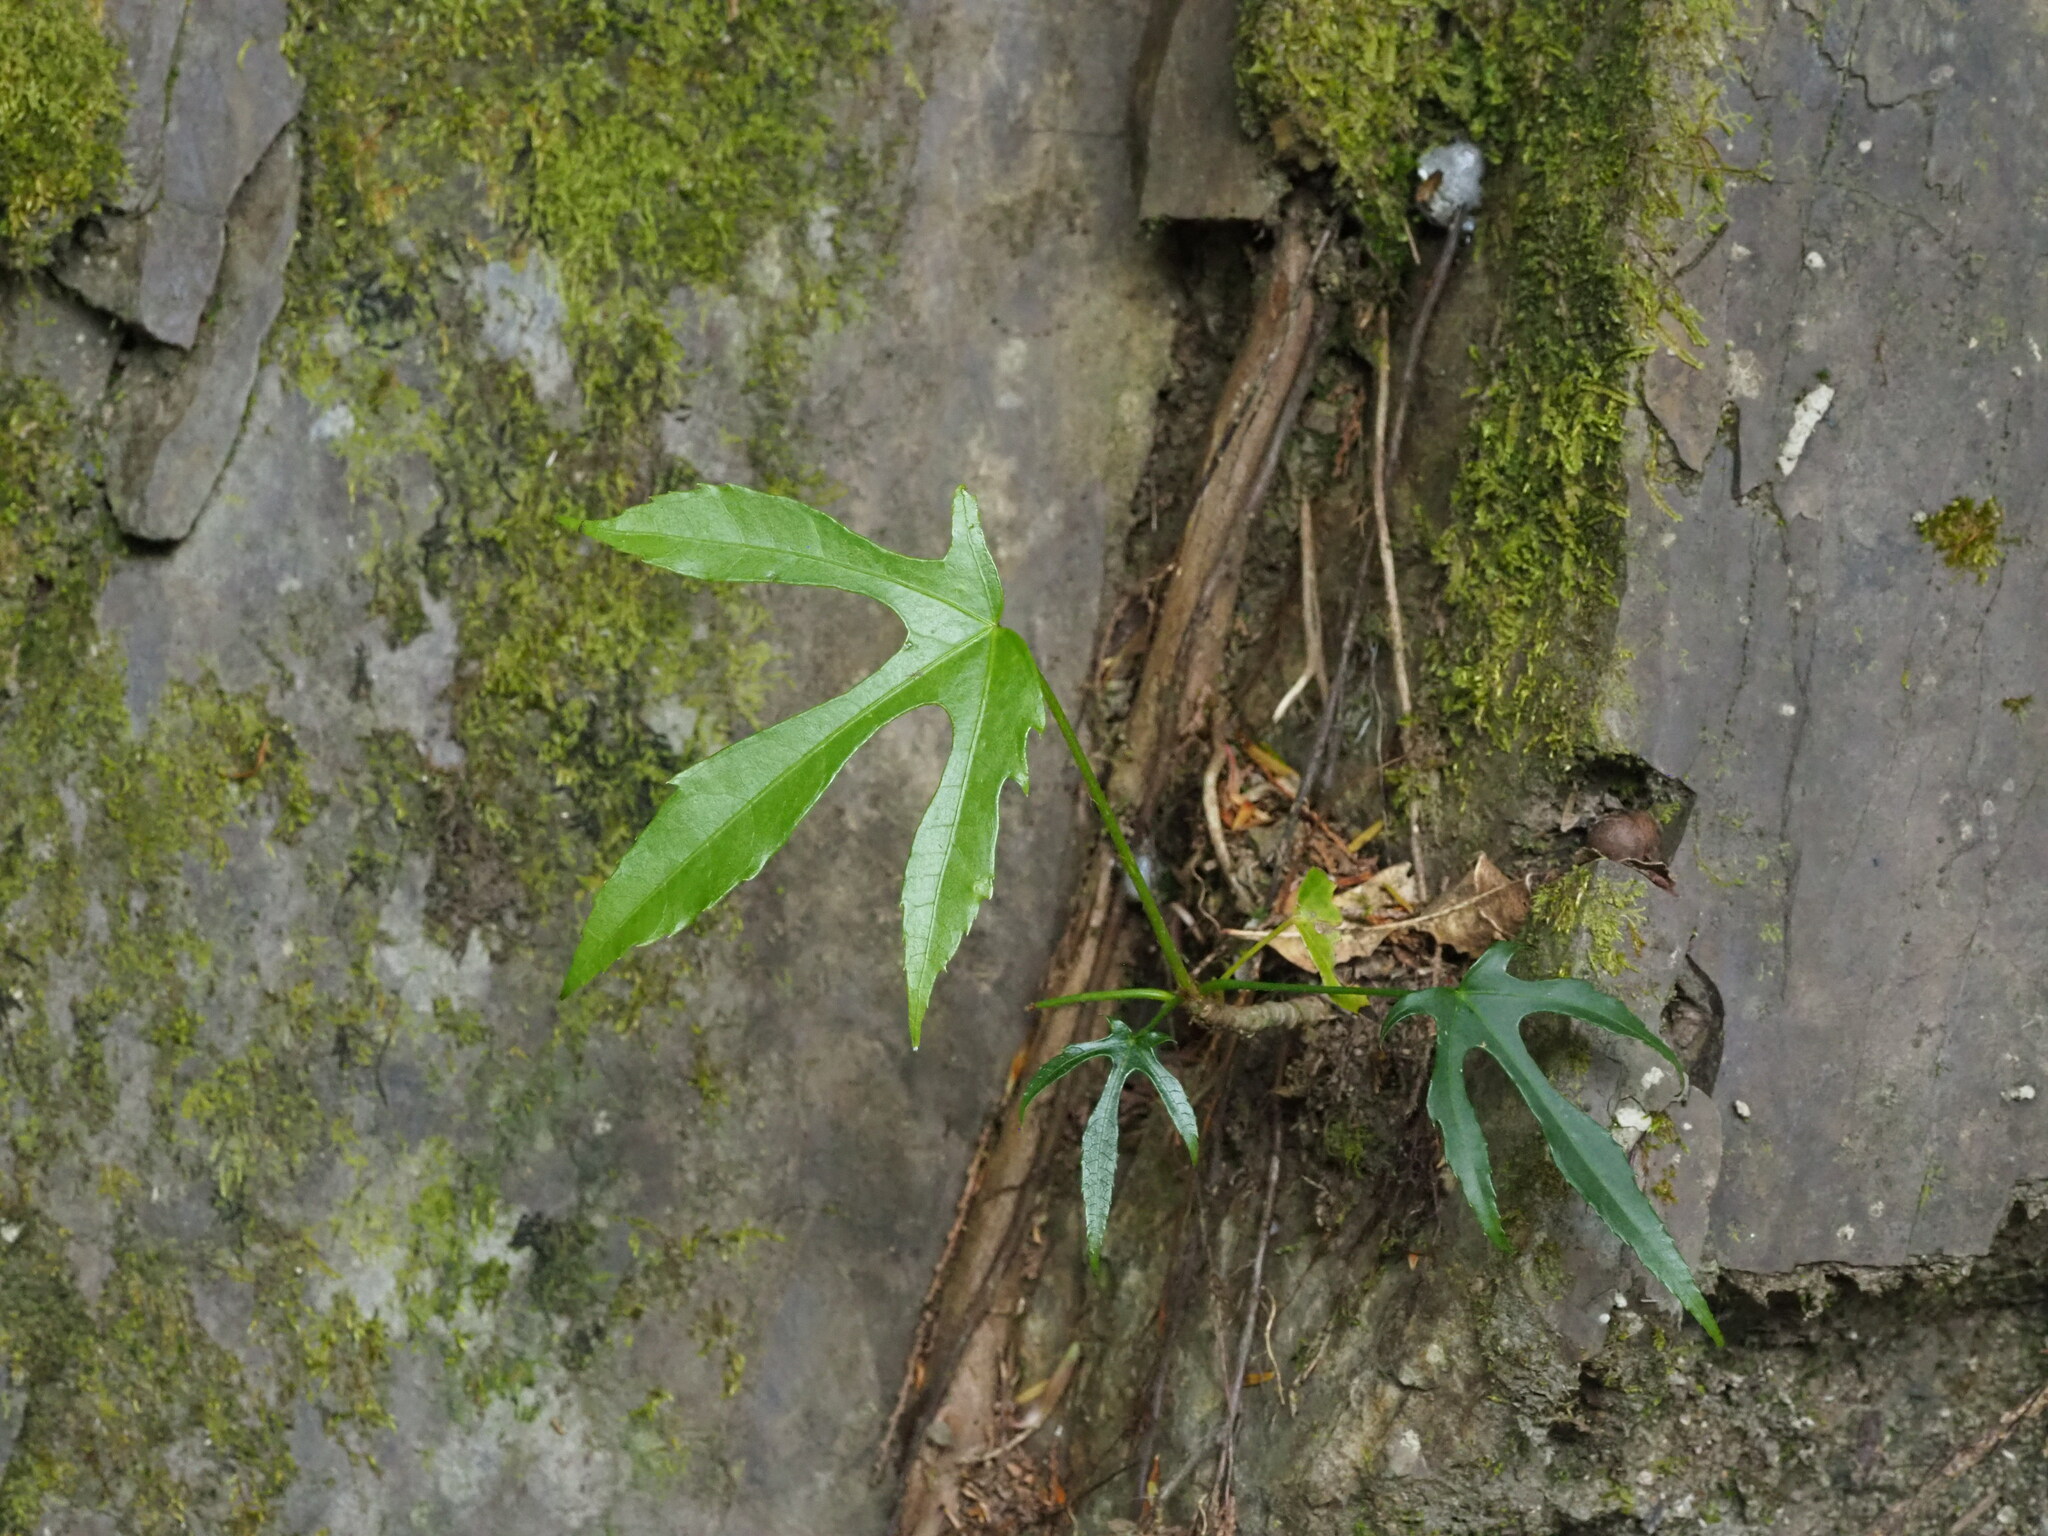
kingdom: Plantae
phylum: Tracheophyta
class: Magnoliopsida
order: Apiales
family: Araliaceae
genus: Fatsia
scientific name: Fatsia polycarpa
